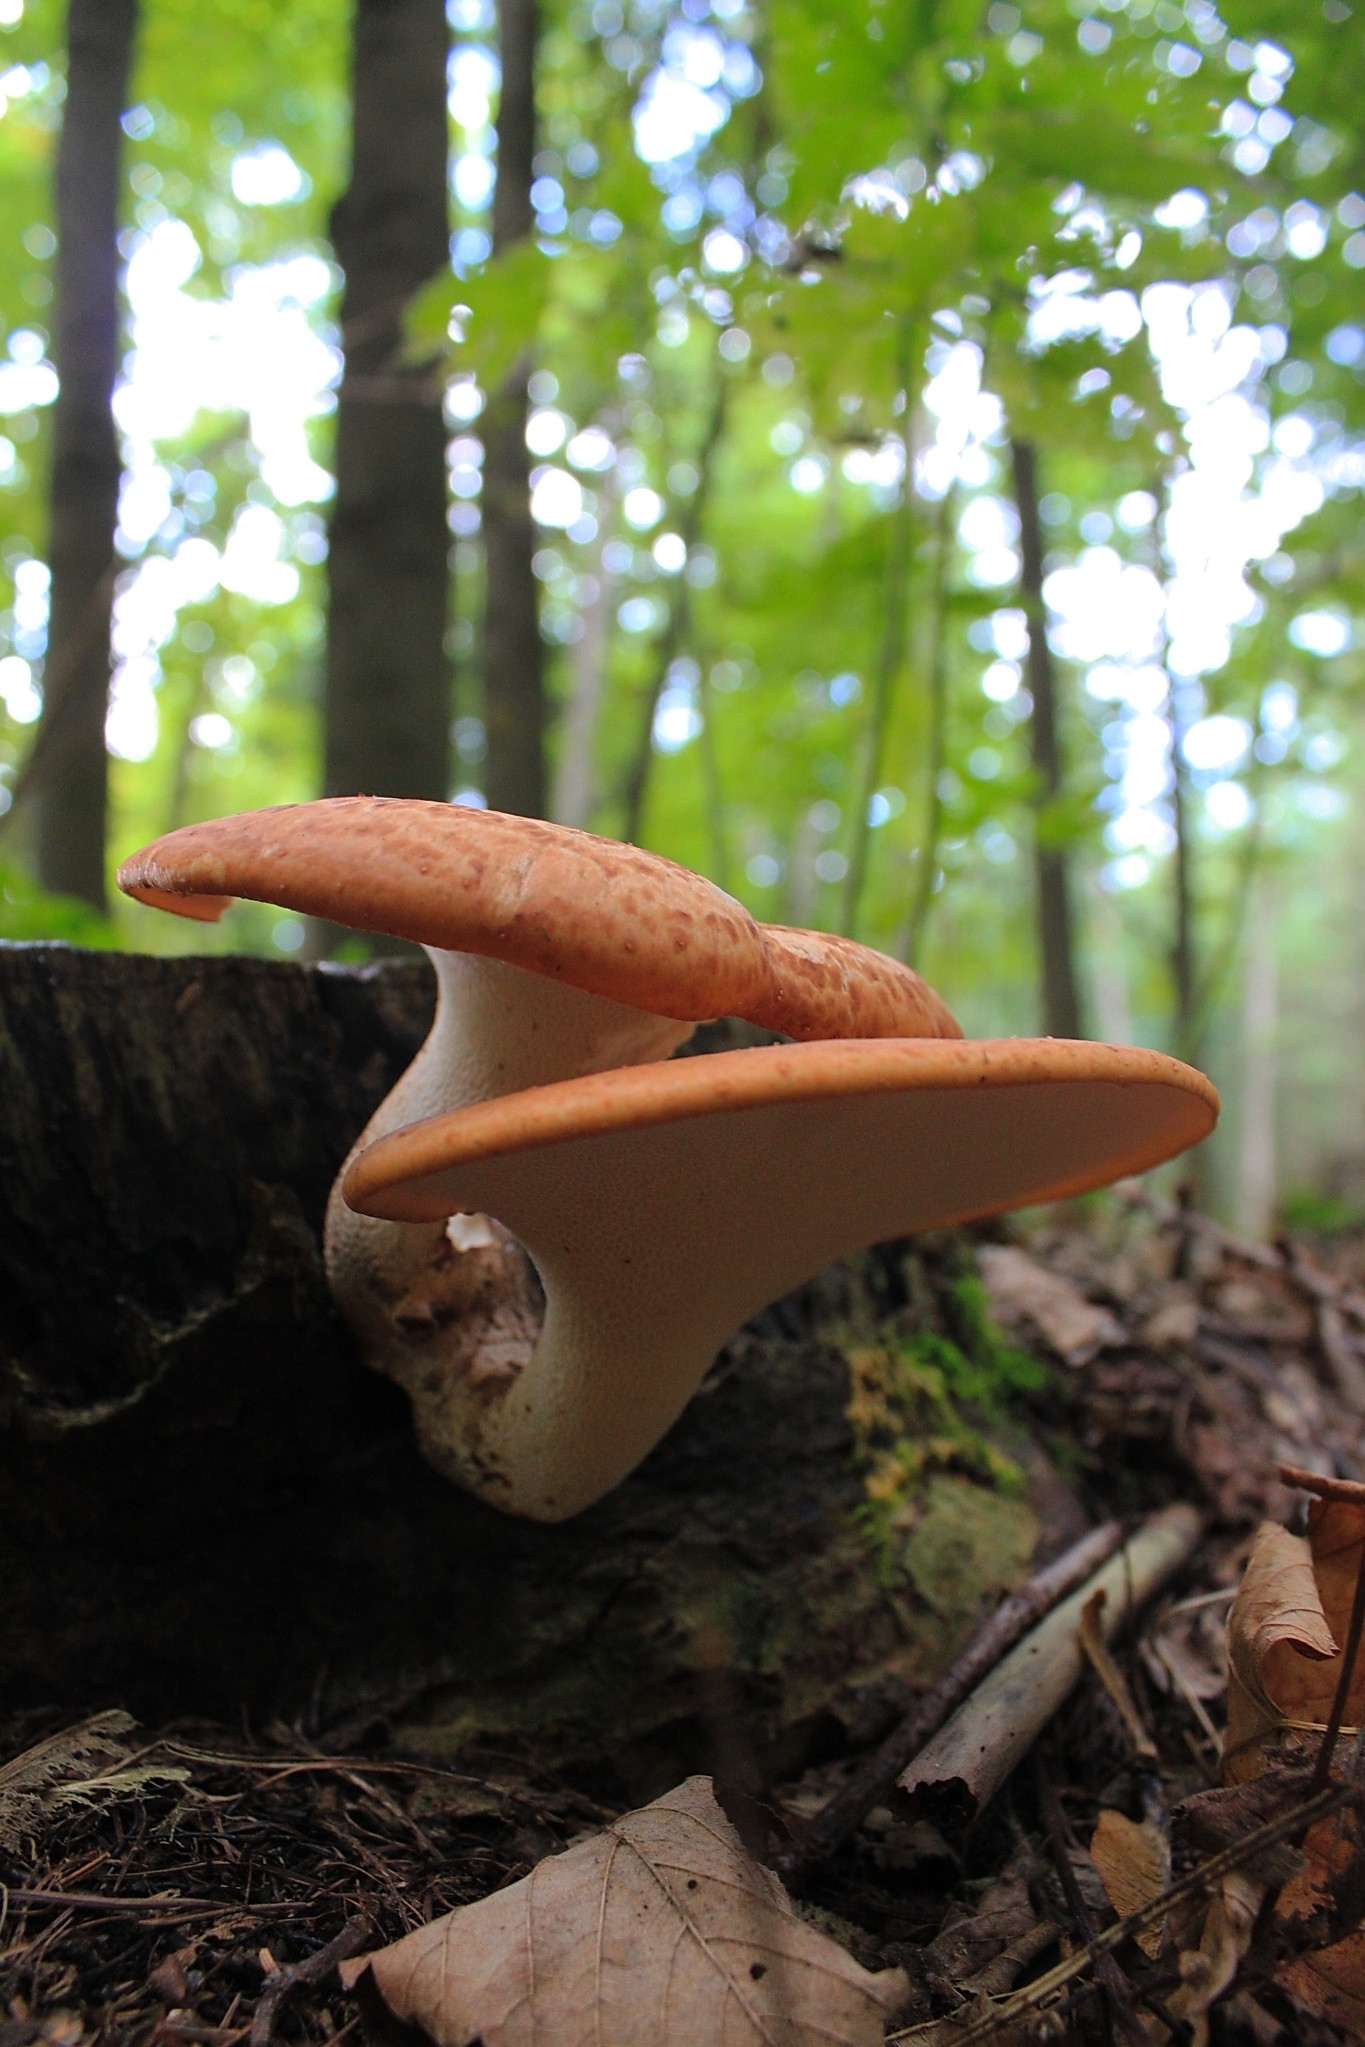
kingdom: Fungi
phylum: Basidiomycota
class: Agaricomycetes
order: Polyporales
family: Polyporaceae
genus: Cerioporus
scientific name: Cerioporus squamosus
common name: Dryad's saddle
